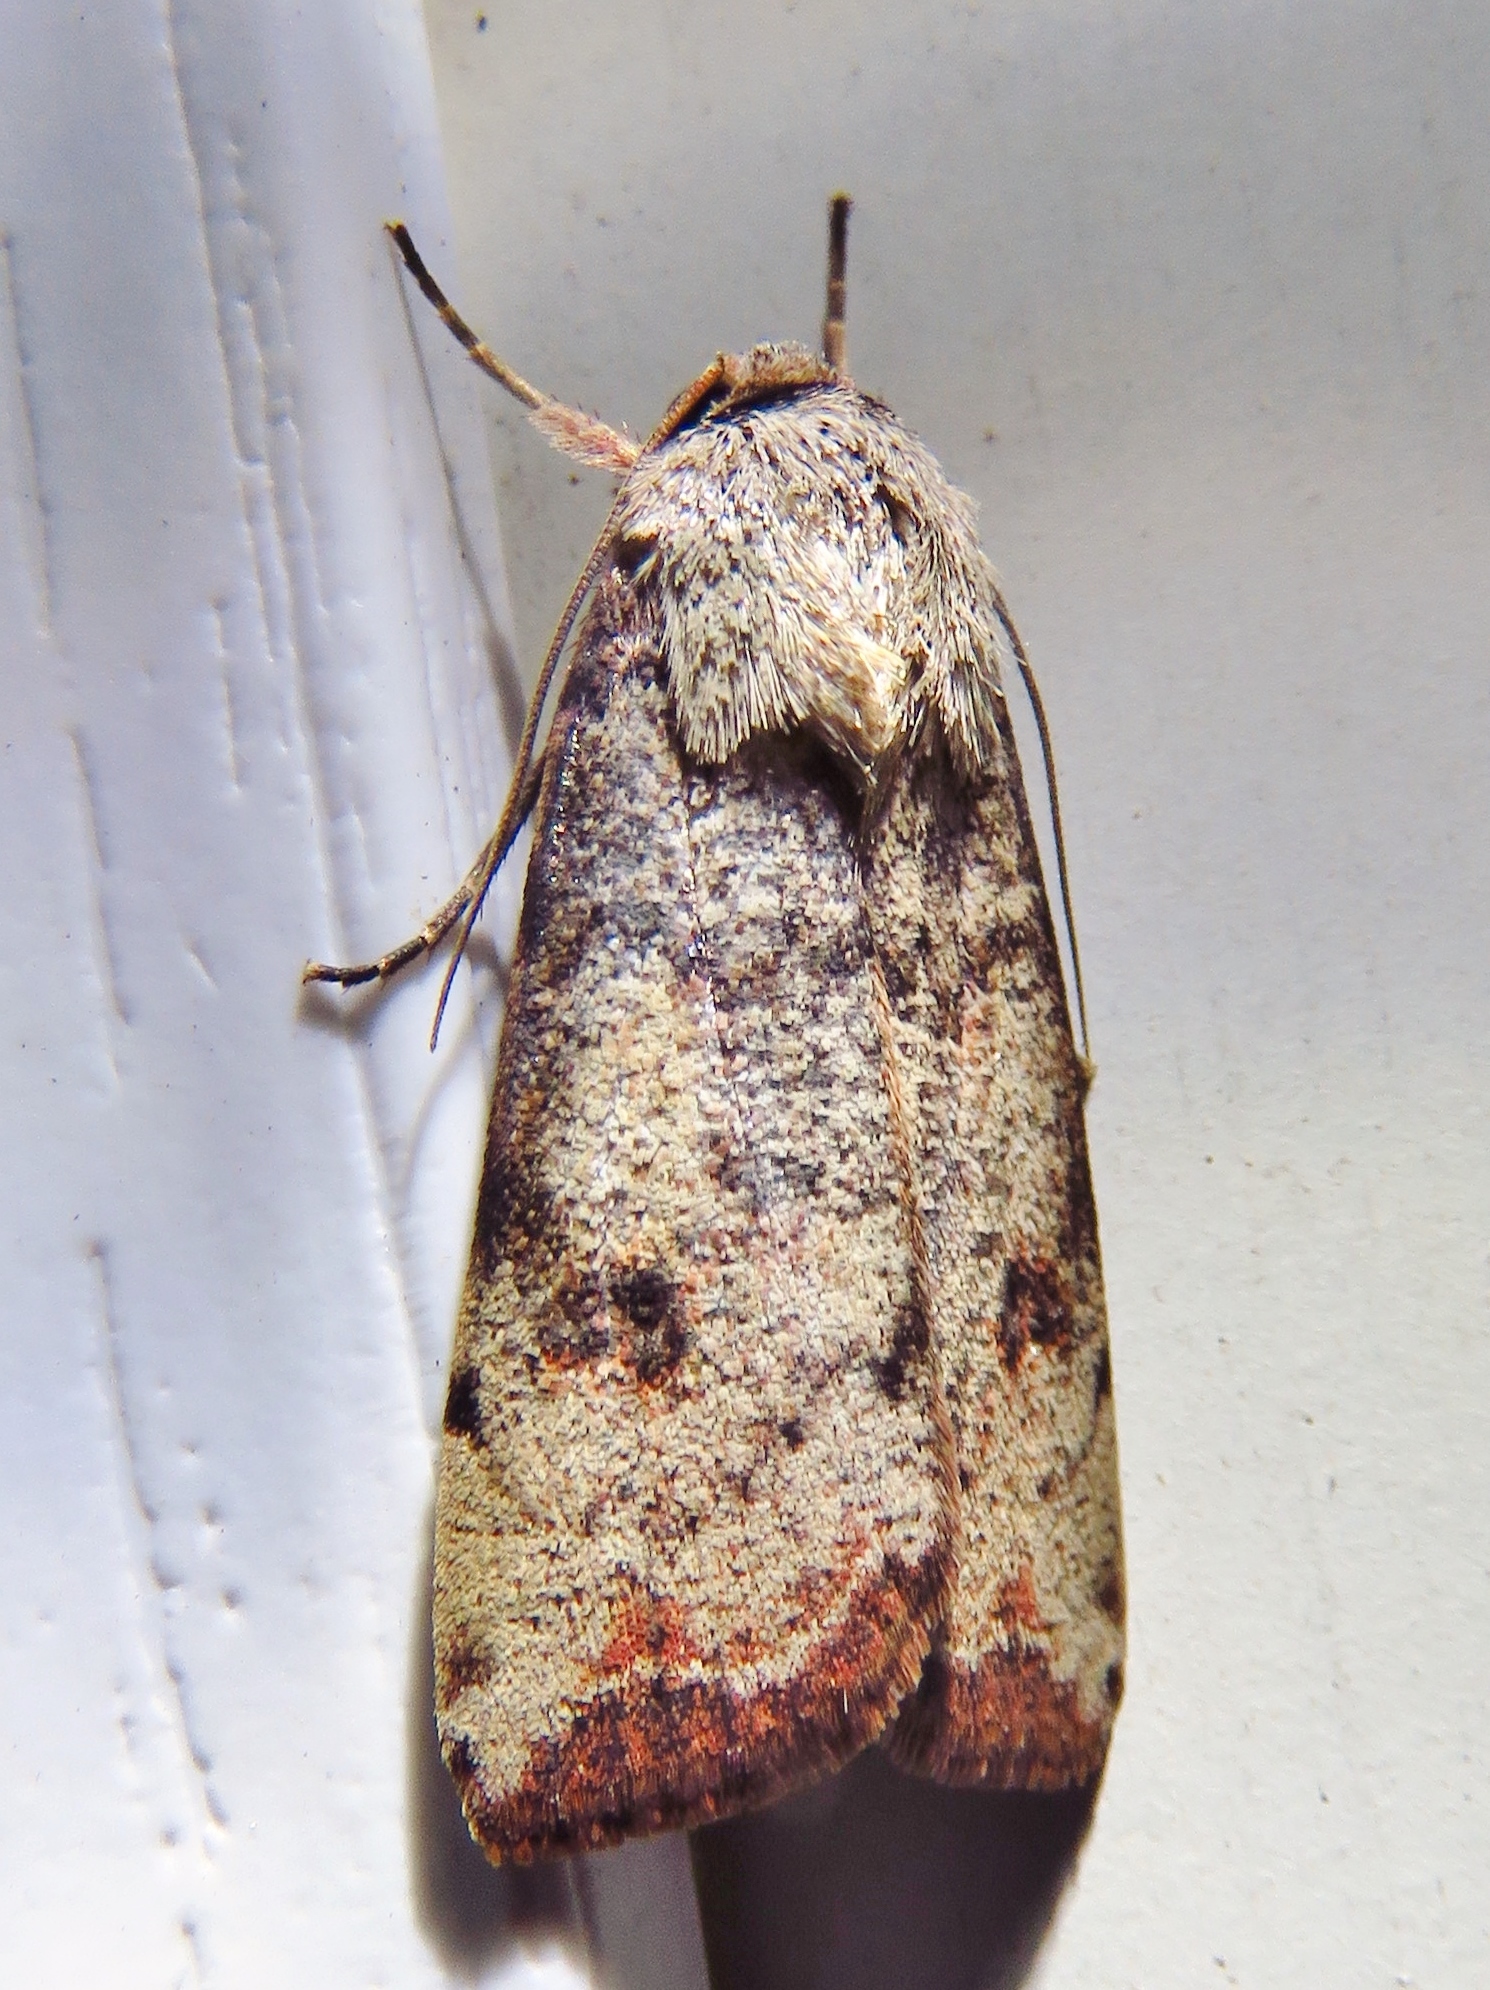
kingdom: Animalia
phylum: Arthropoda
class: Insecta
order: Lepidoptera
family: Noctuidae
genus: Anicla
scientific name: Anicla infecta
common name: Green cutworm
